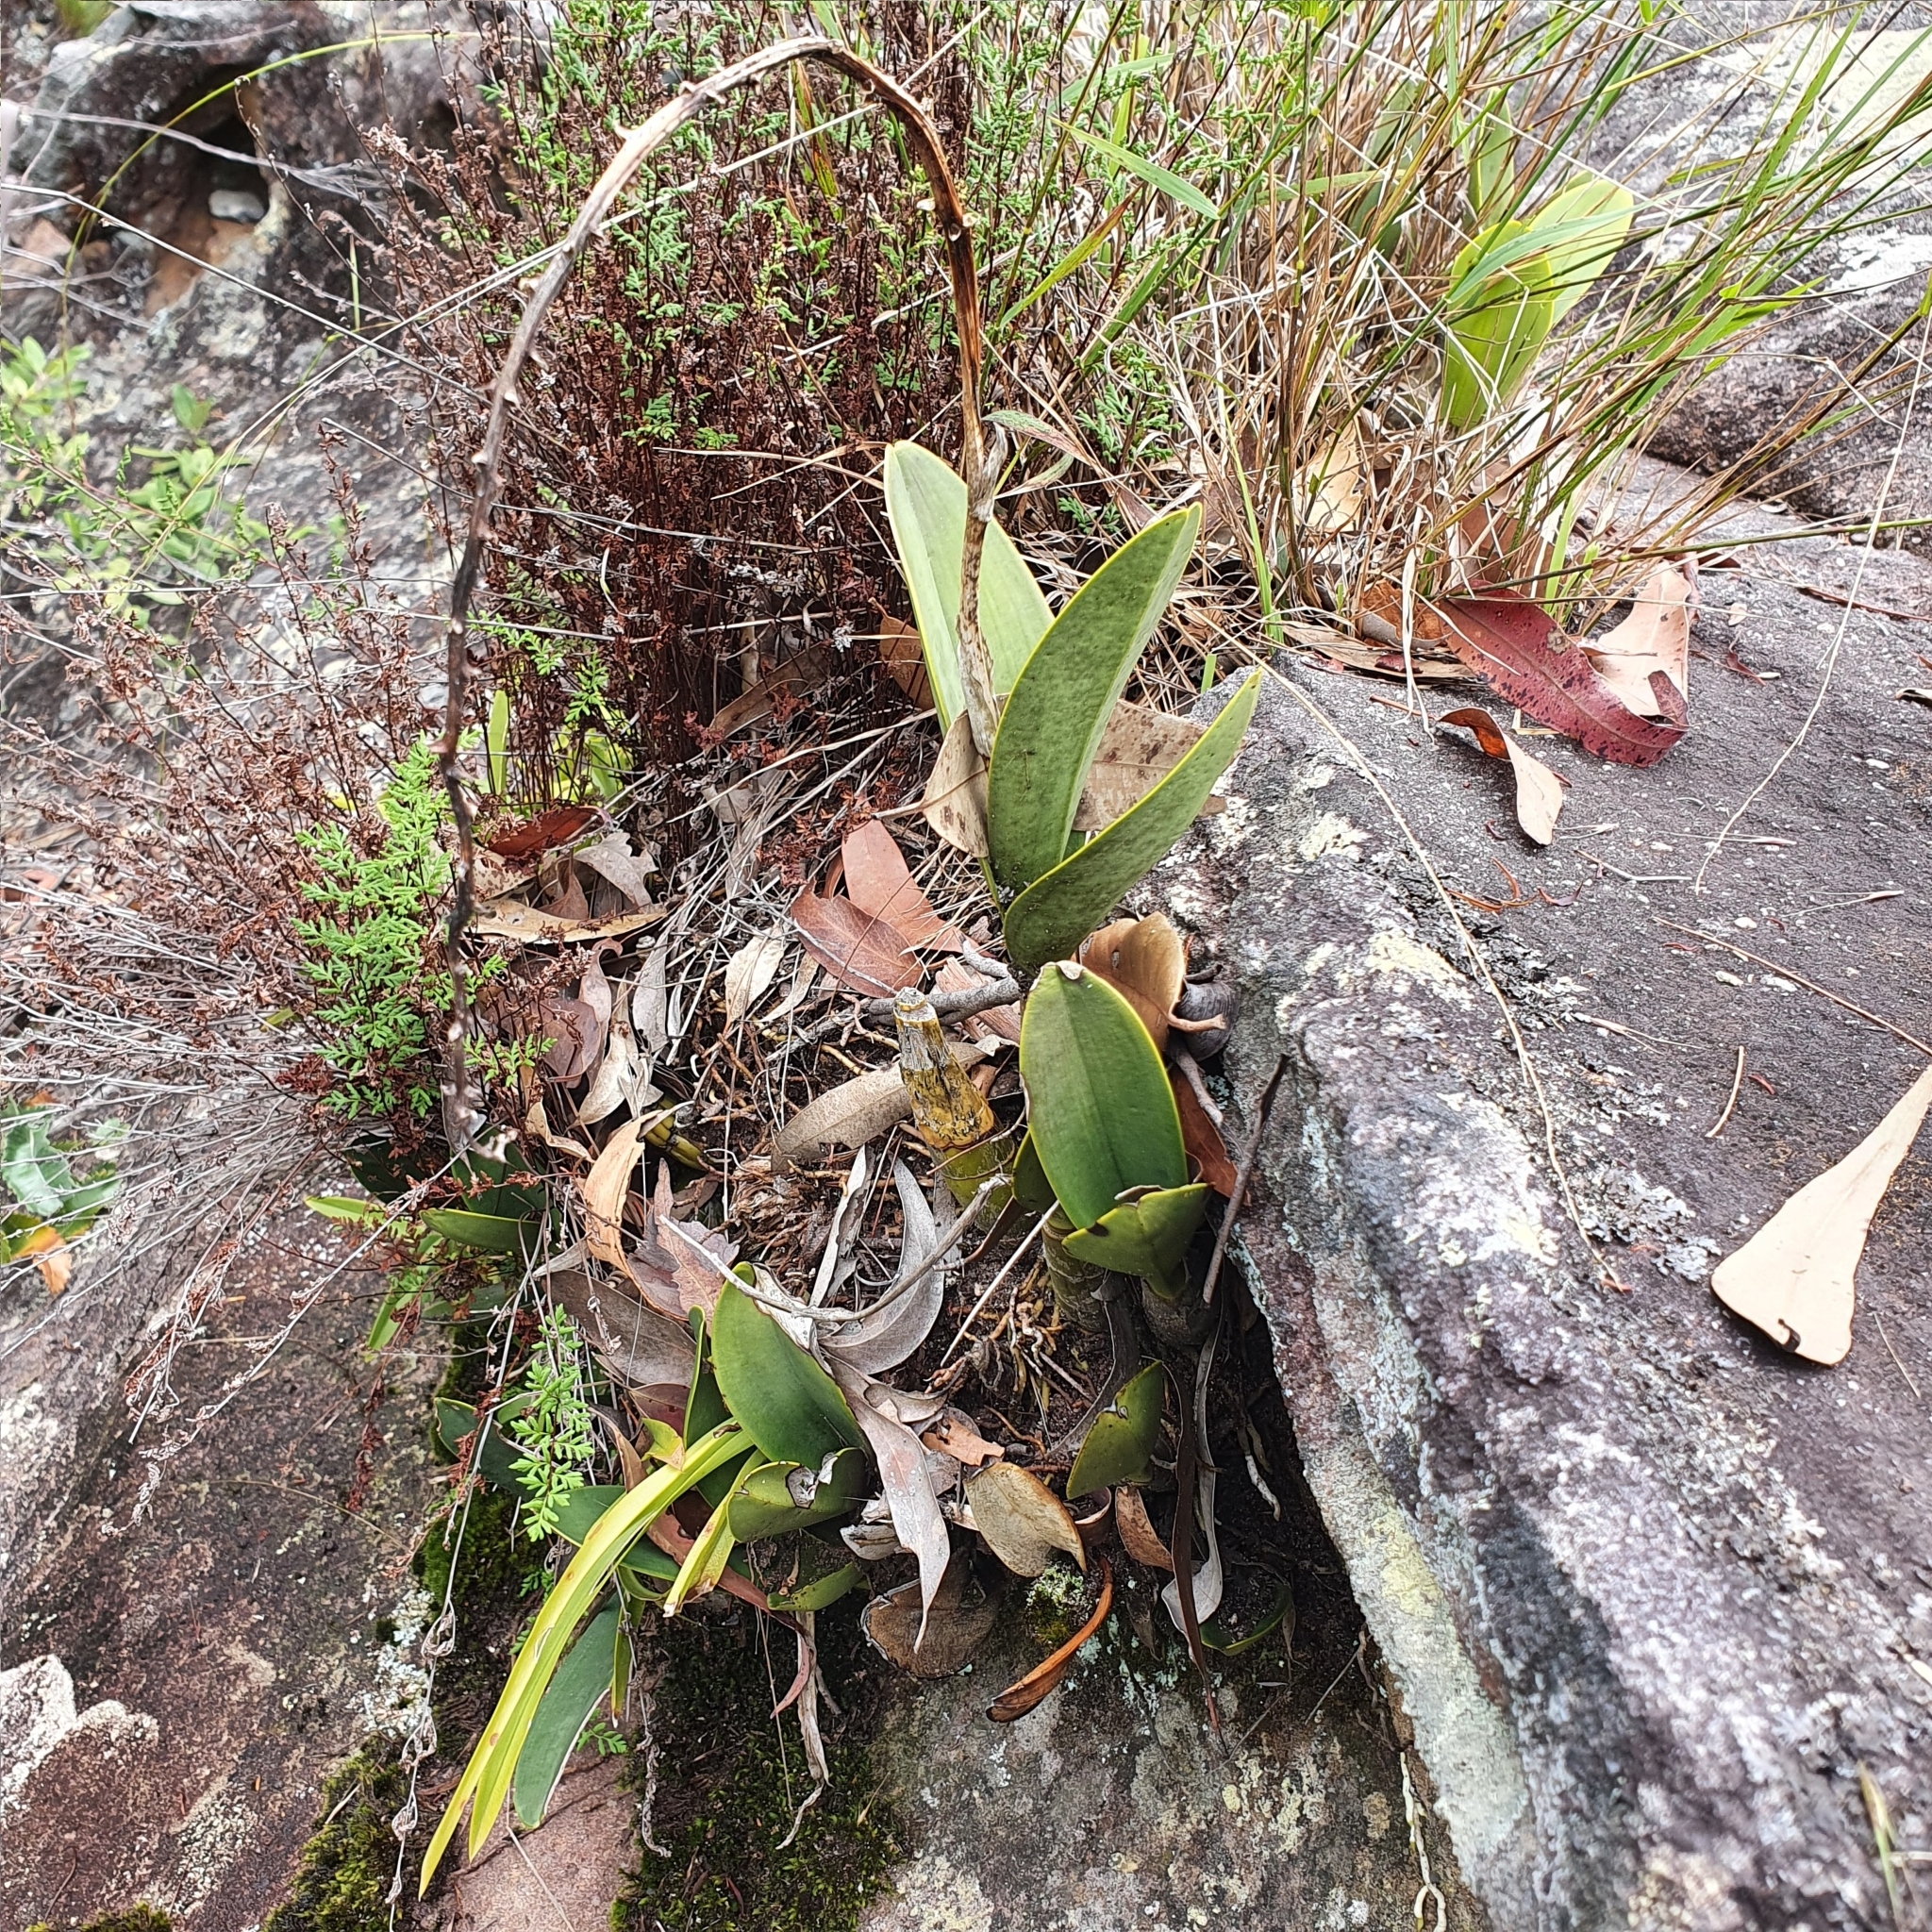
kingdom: Plantae
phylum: Tracheophyta
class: Liliopsida
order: Asparagales
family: Orchidaceae
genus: Dendrobium
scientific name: Dendrobium speciosum
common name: Rock-lily
